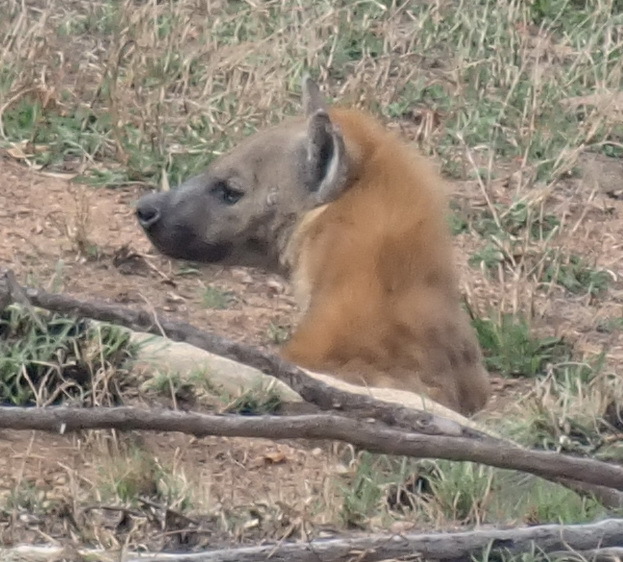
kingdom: Animalia
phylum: Chordata
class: Mammalia
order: Carnivora
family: Hyaenidae
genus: Crocuta
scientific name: Crocuta crocuta
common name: Spotted hyaena
